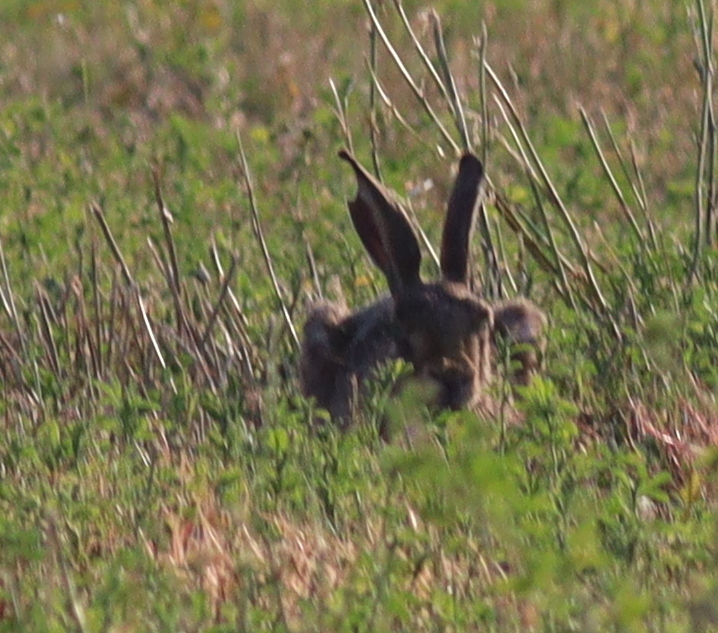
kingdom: Animalia
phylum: Chordata
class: Mammalia
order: Lagomorpha
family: Leporidae
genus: Lepus
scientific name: Lepus europaeus
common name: European hare
